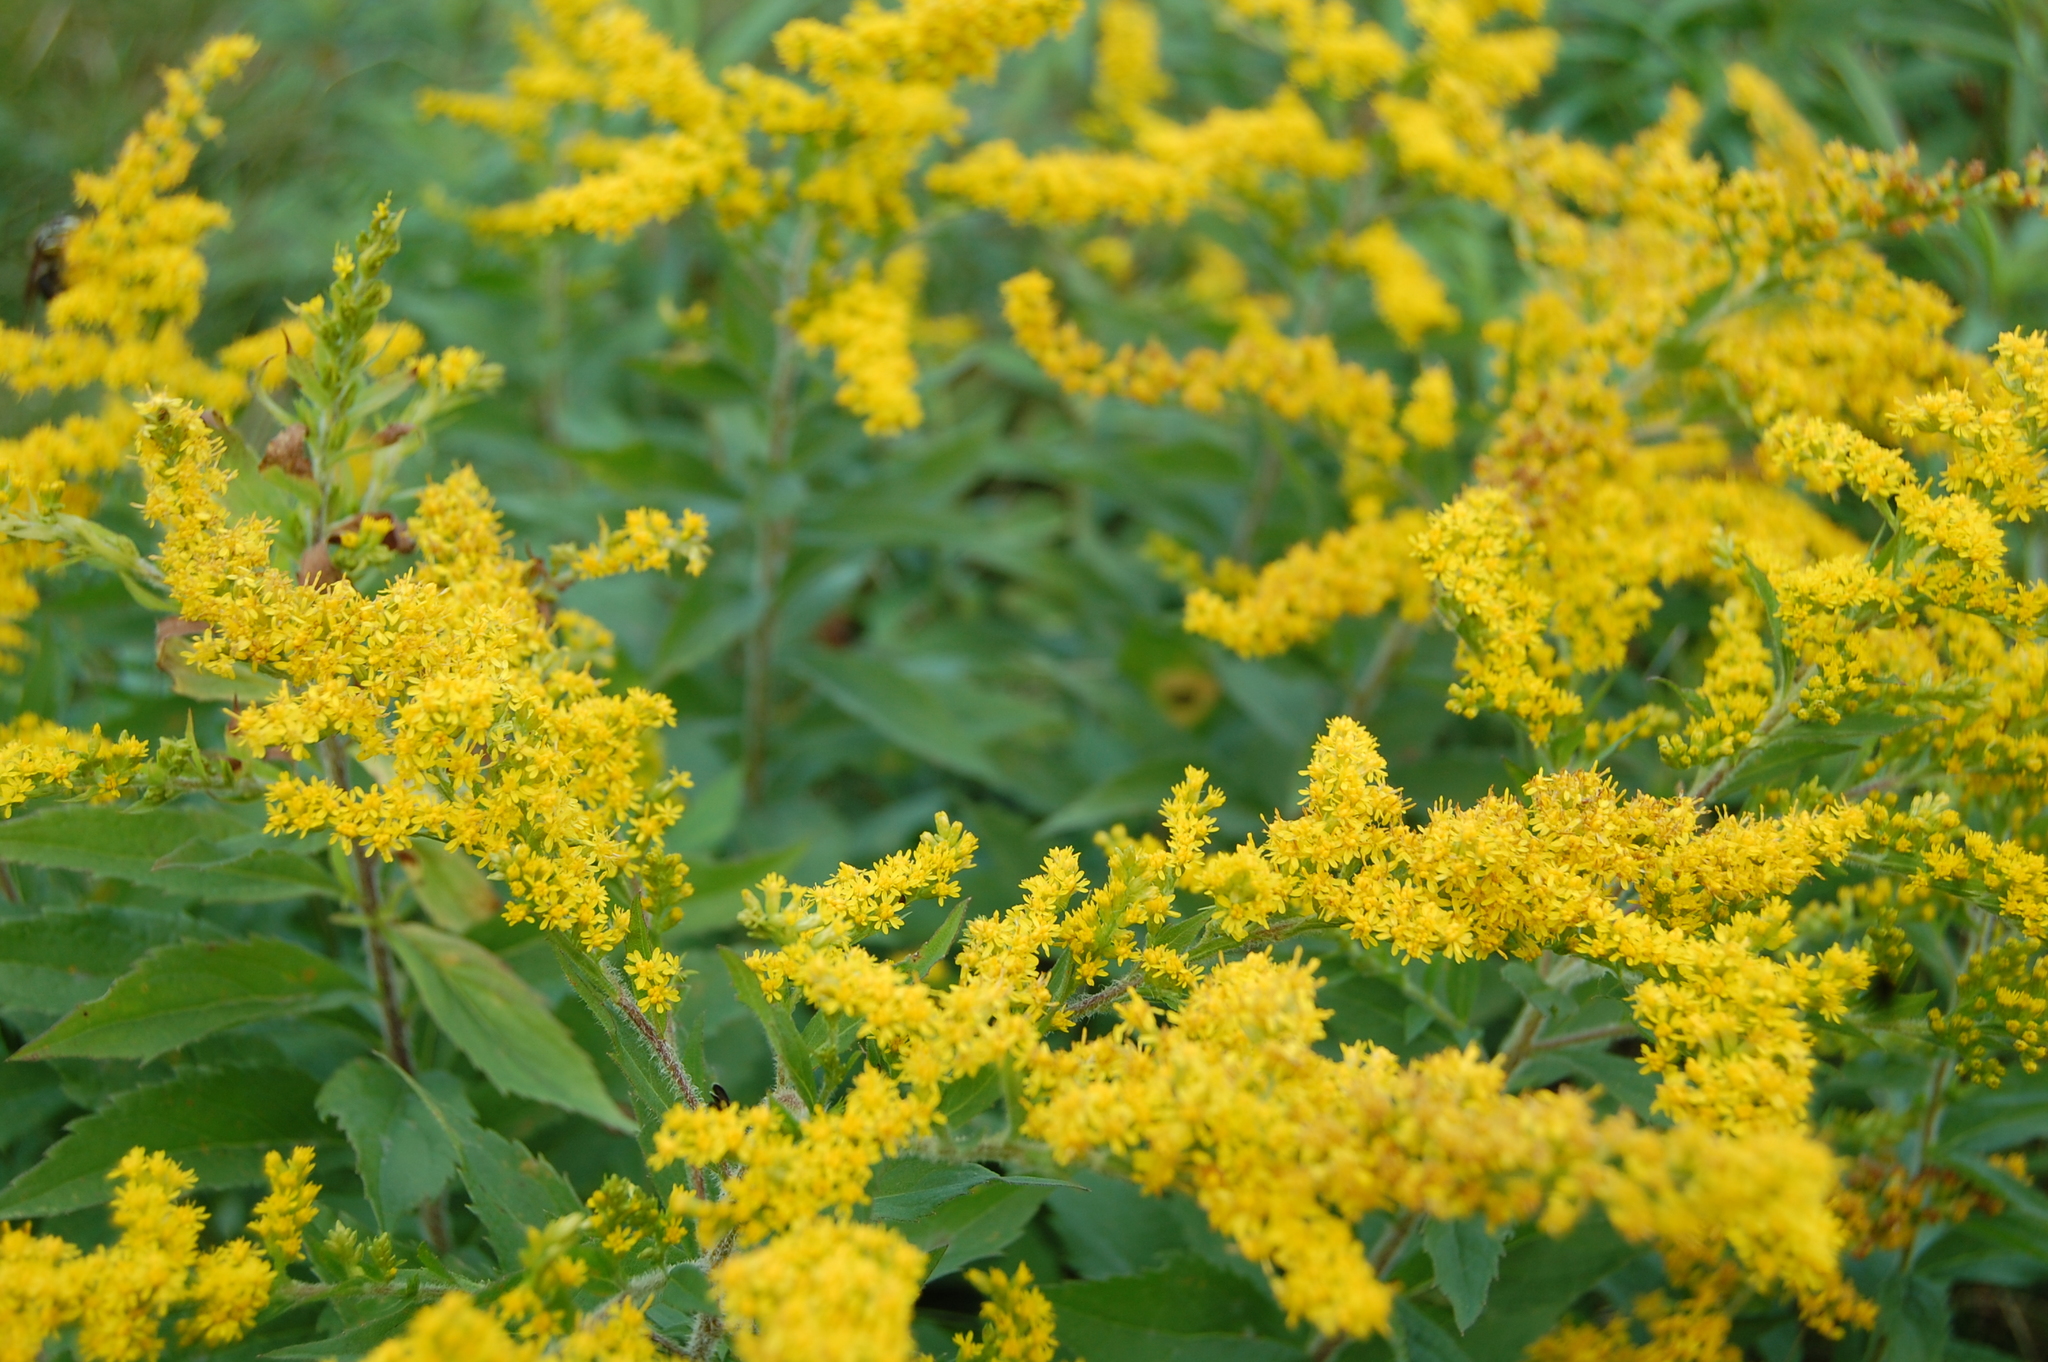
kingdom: Plantae
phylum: Tracheophyta
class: Magnoliopsida
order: Asterales
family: Asteraceae
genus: Solidago
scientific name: Solidago rugosa
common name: Rough-stemmed goldenrod
